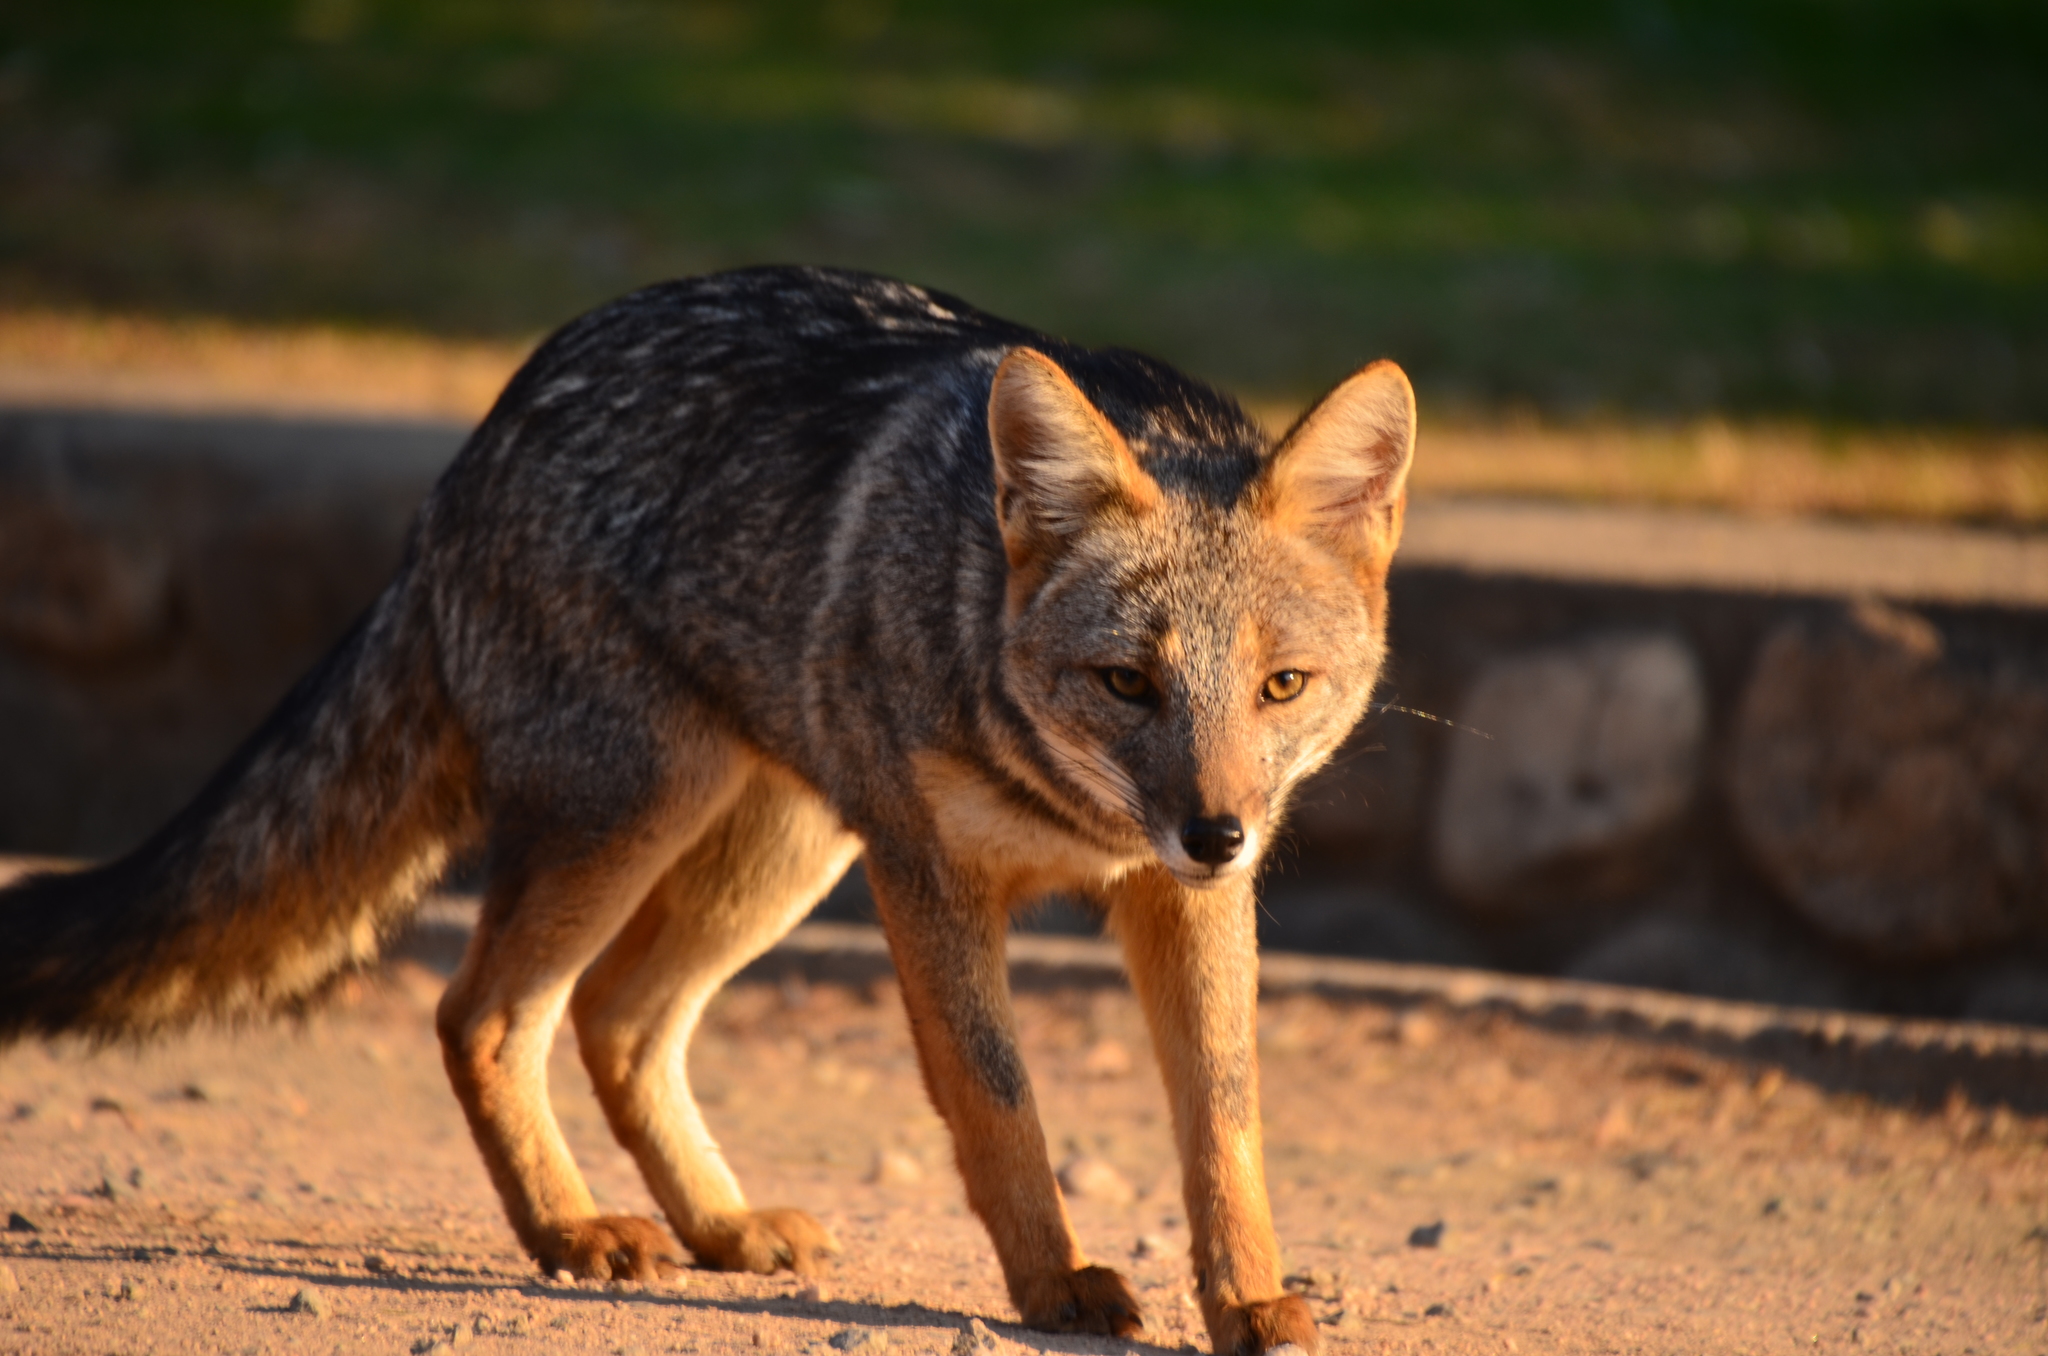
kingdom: Animalia
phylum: Chordata
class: Mammalia
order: Carnivora
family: Canidae
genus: Lycalopex
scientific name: Lycalopex gymnocercus
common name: Pampas fox
